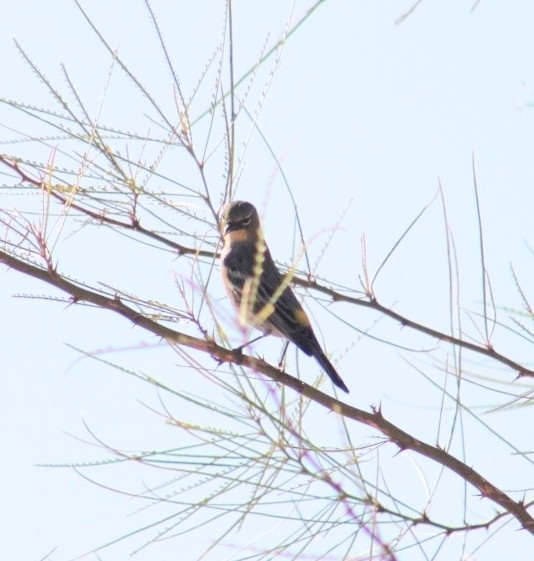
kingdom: Animalia
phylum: Chordata
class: Aves
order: Passeriformes
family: Parulidae
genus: Setophaga
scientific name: Setophaga coronata
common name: Myrtle warbler
